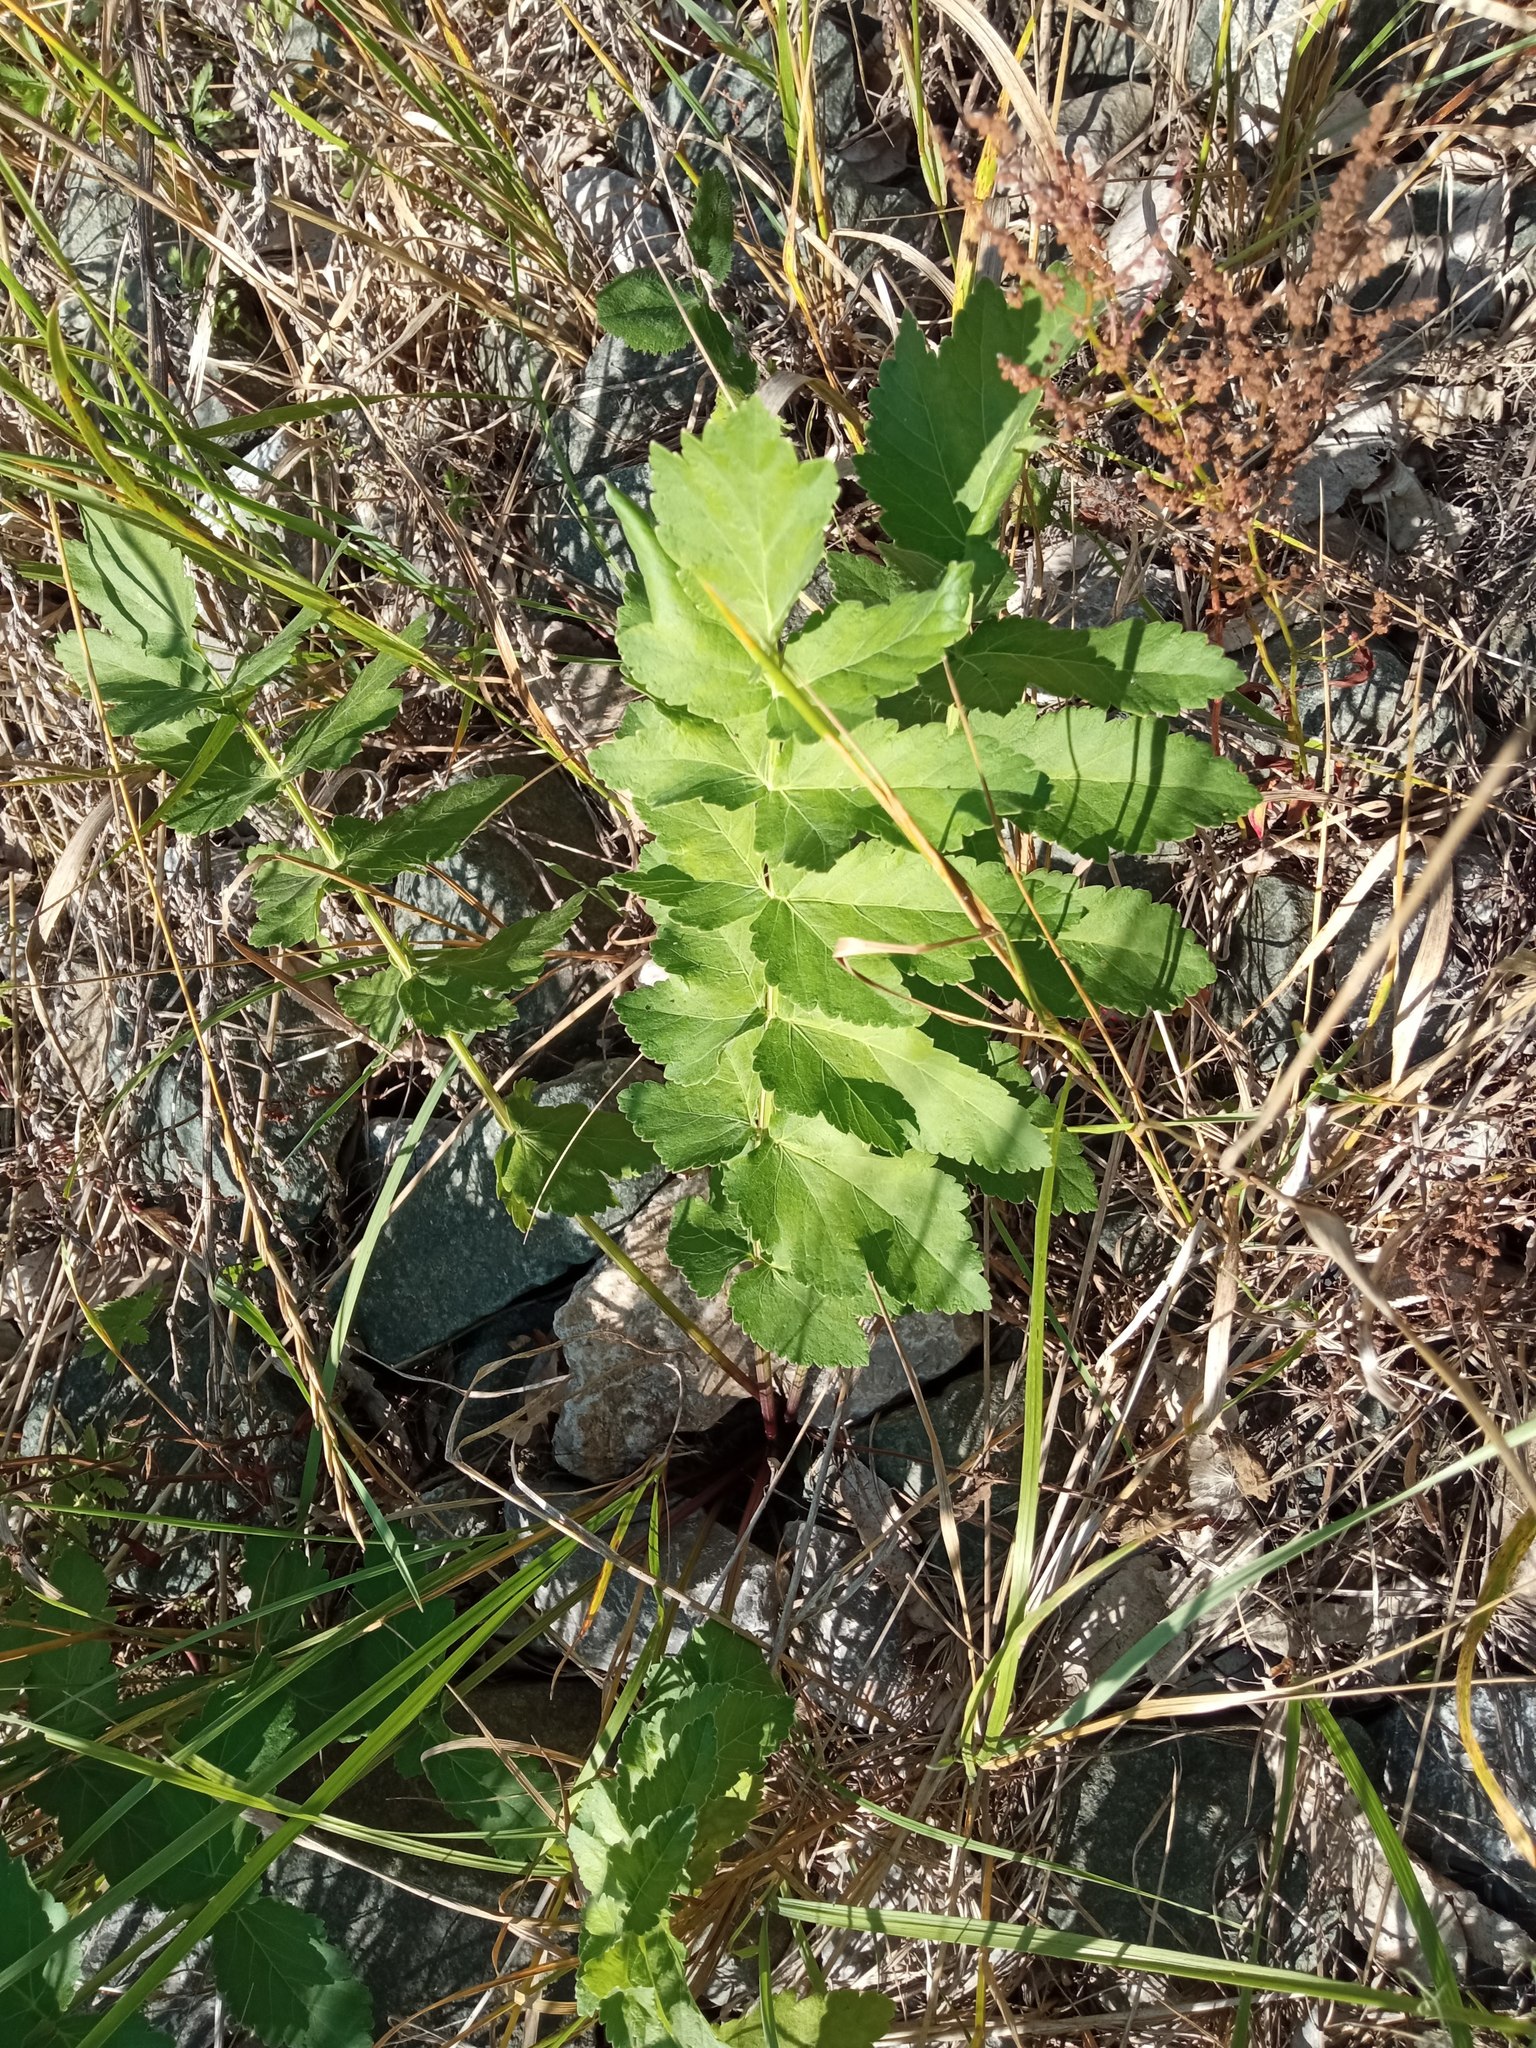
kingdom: Plantae
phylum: Tracheophyta
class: Magnoliopsida
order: Apiales
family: Apiaceae
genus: Pastinaca
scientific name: Pastinaca sativa
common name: Wild parsnip
